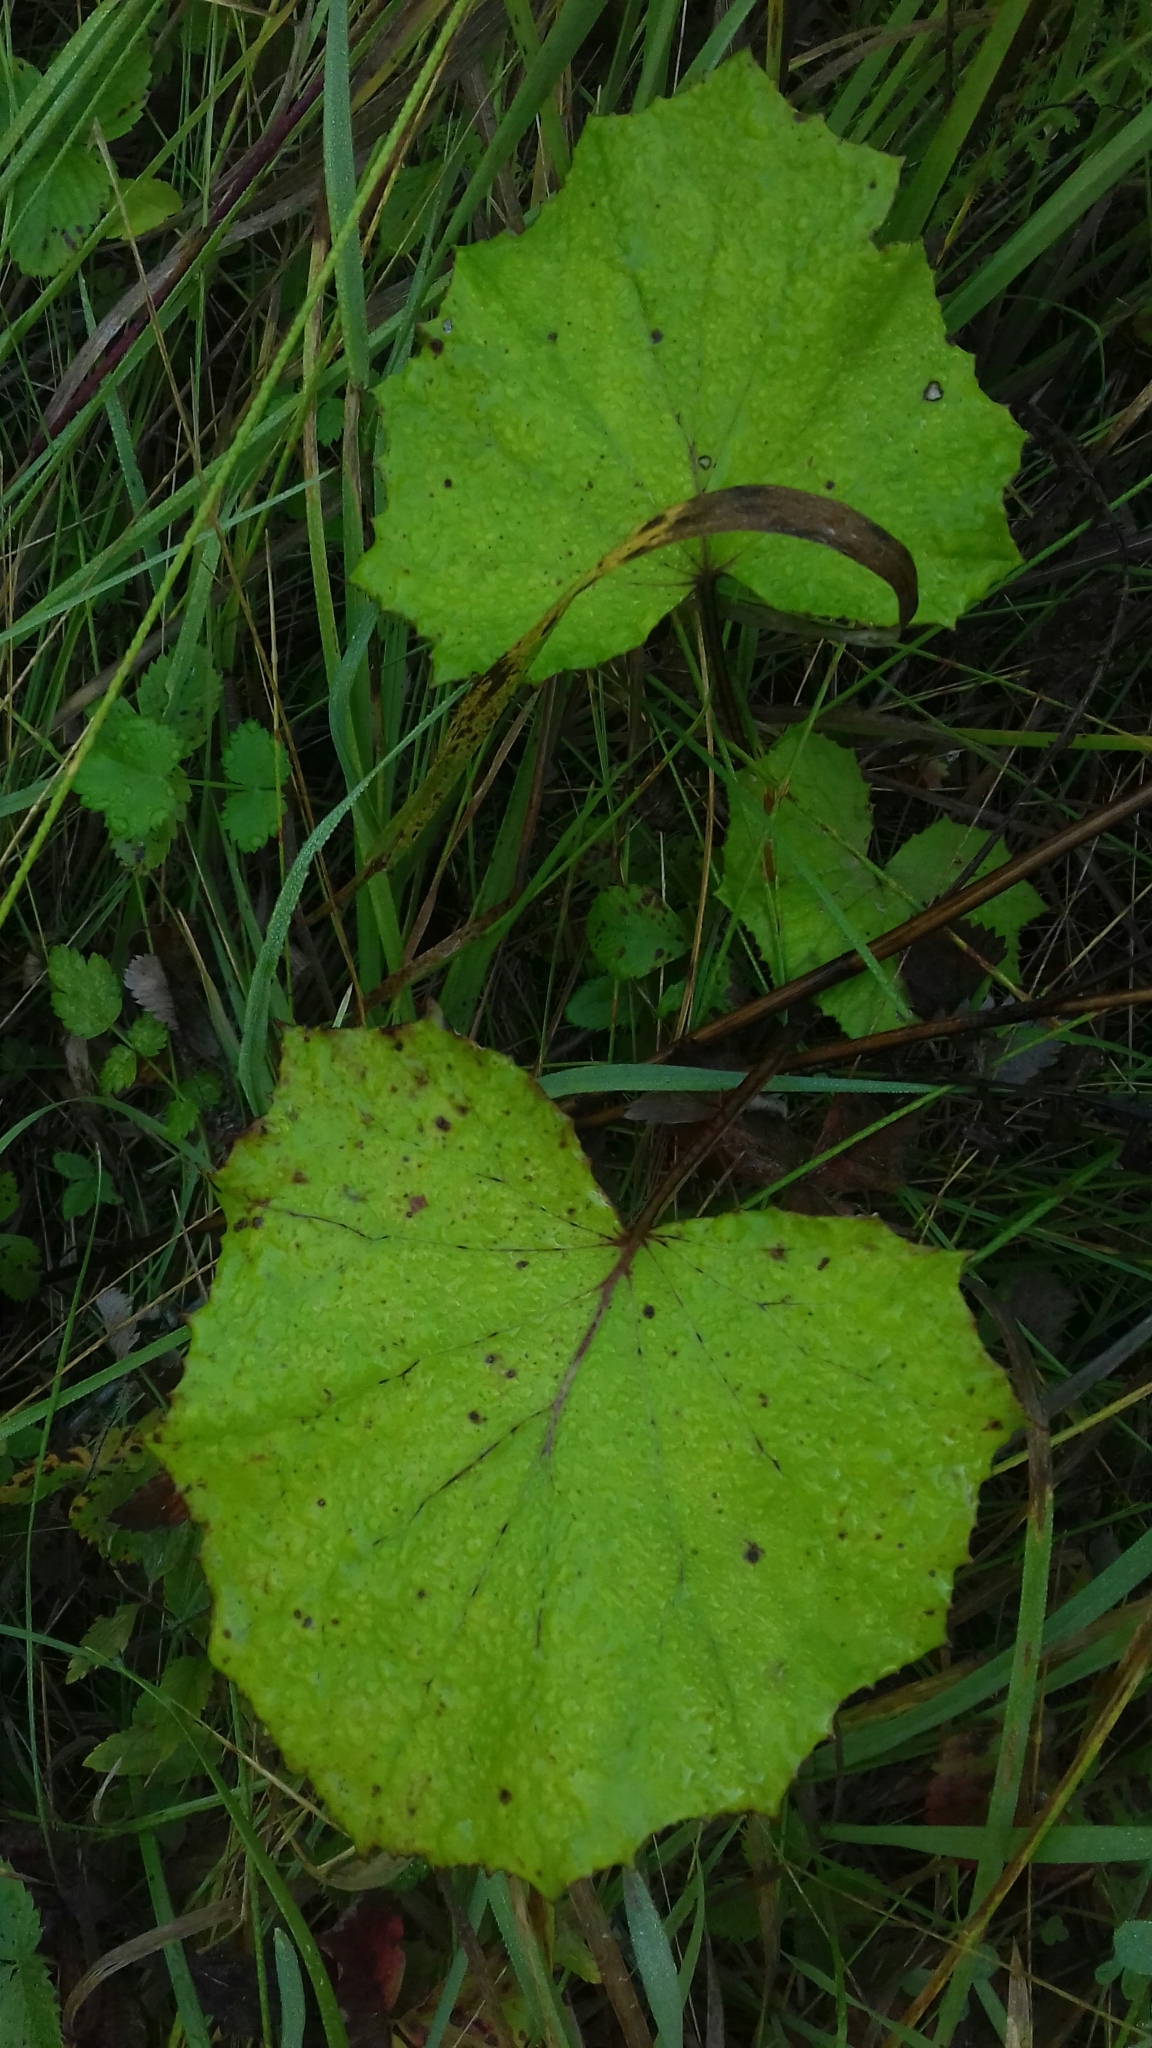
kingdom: Plantae
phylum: Tracheophyta
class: Magnoliopsida
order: Asterales
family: Asteraceae
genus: Tussilago
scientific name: Tussilago farfara
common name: Coltsfoot
